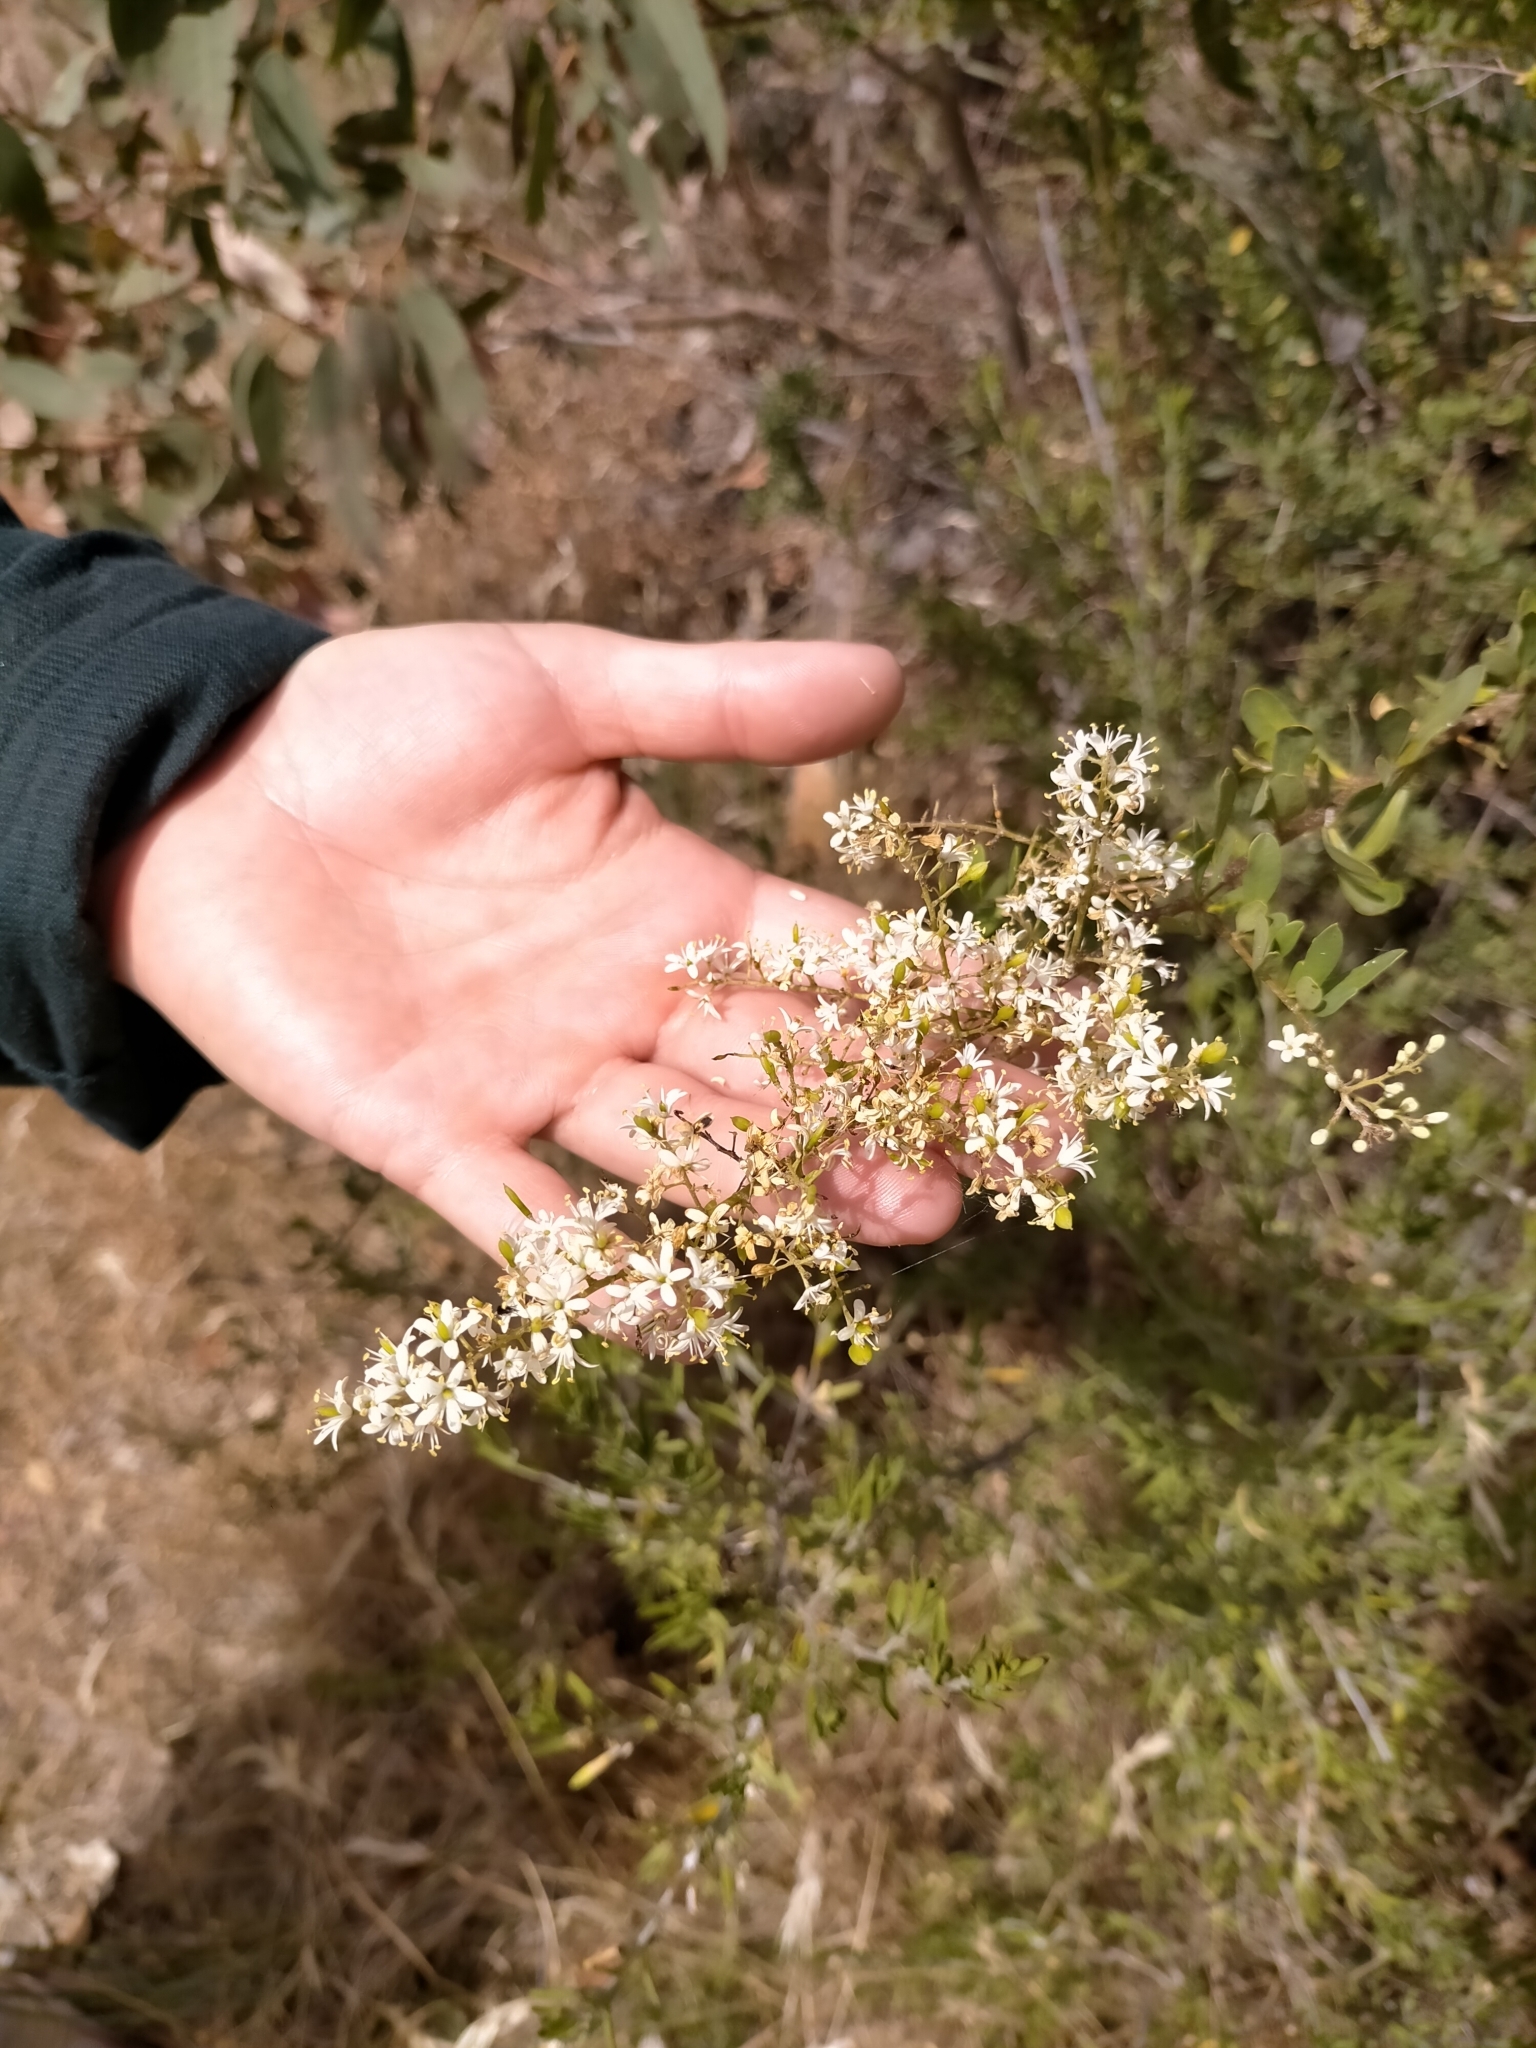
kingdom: Plantae
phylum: Tracheophyta
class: Magnoliopsida
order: Apiales
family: Pittosporaceae
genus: Bursaria
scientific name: Bursaria spinosa
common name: Australian blackthorn
